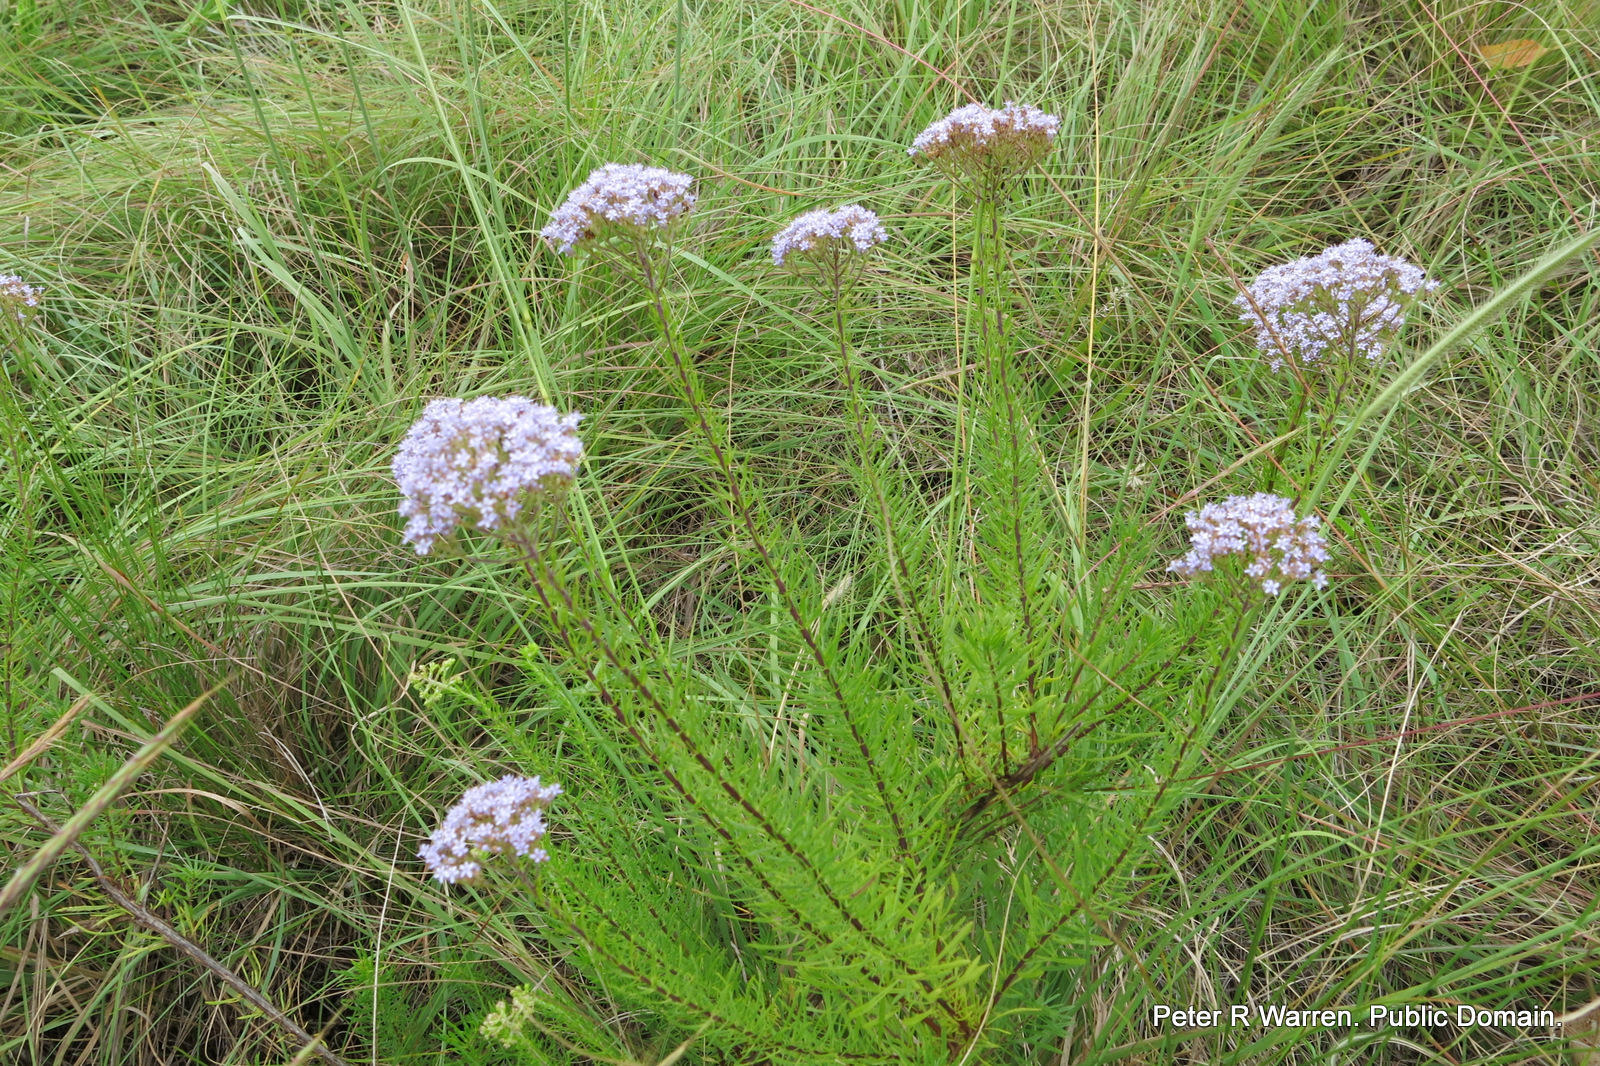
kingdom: Plantae
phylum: Tracheophyta
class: Magnoliopsida
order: Lamiales
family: Scrophulariaceae
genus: Tetraselago
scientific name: Tetraselago natalensis
